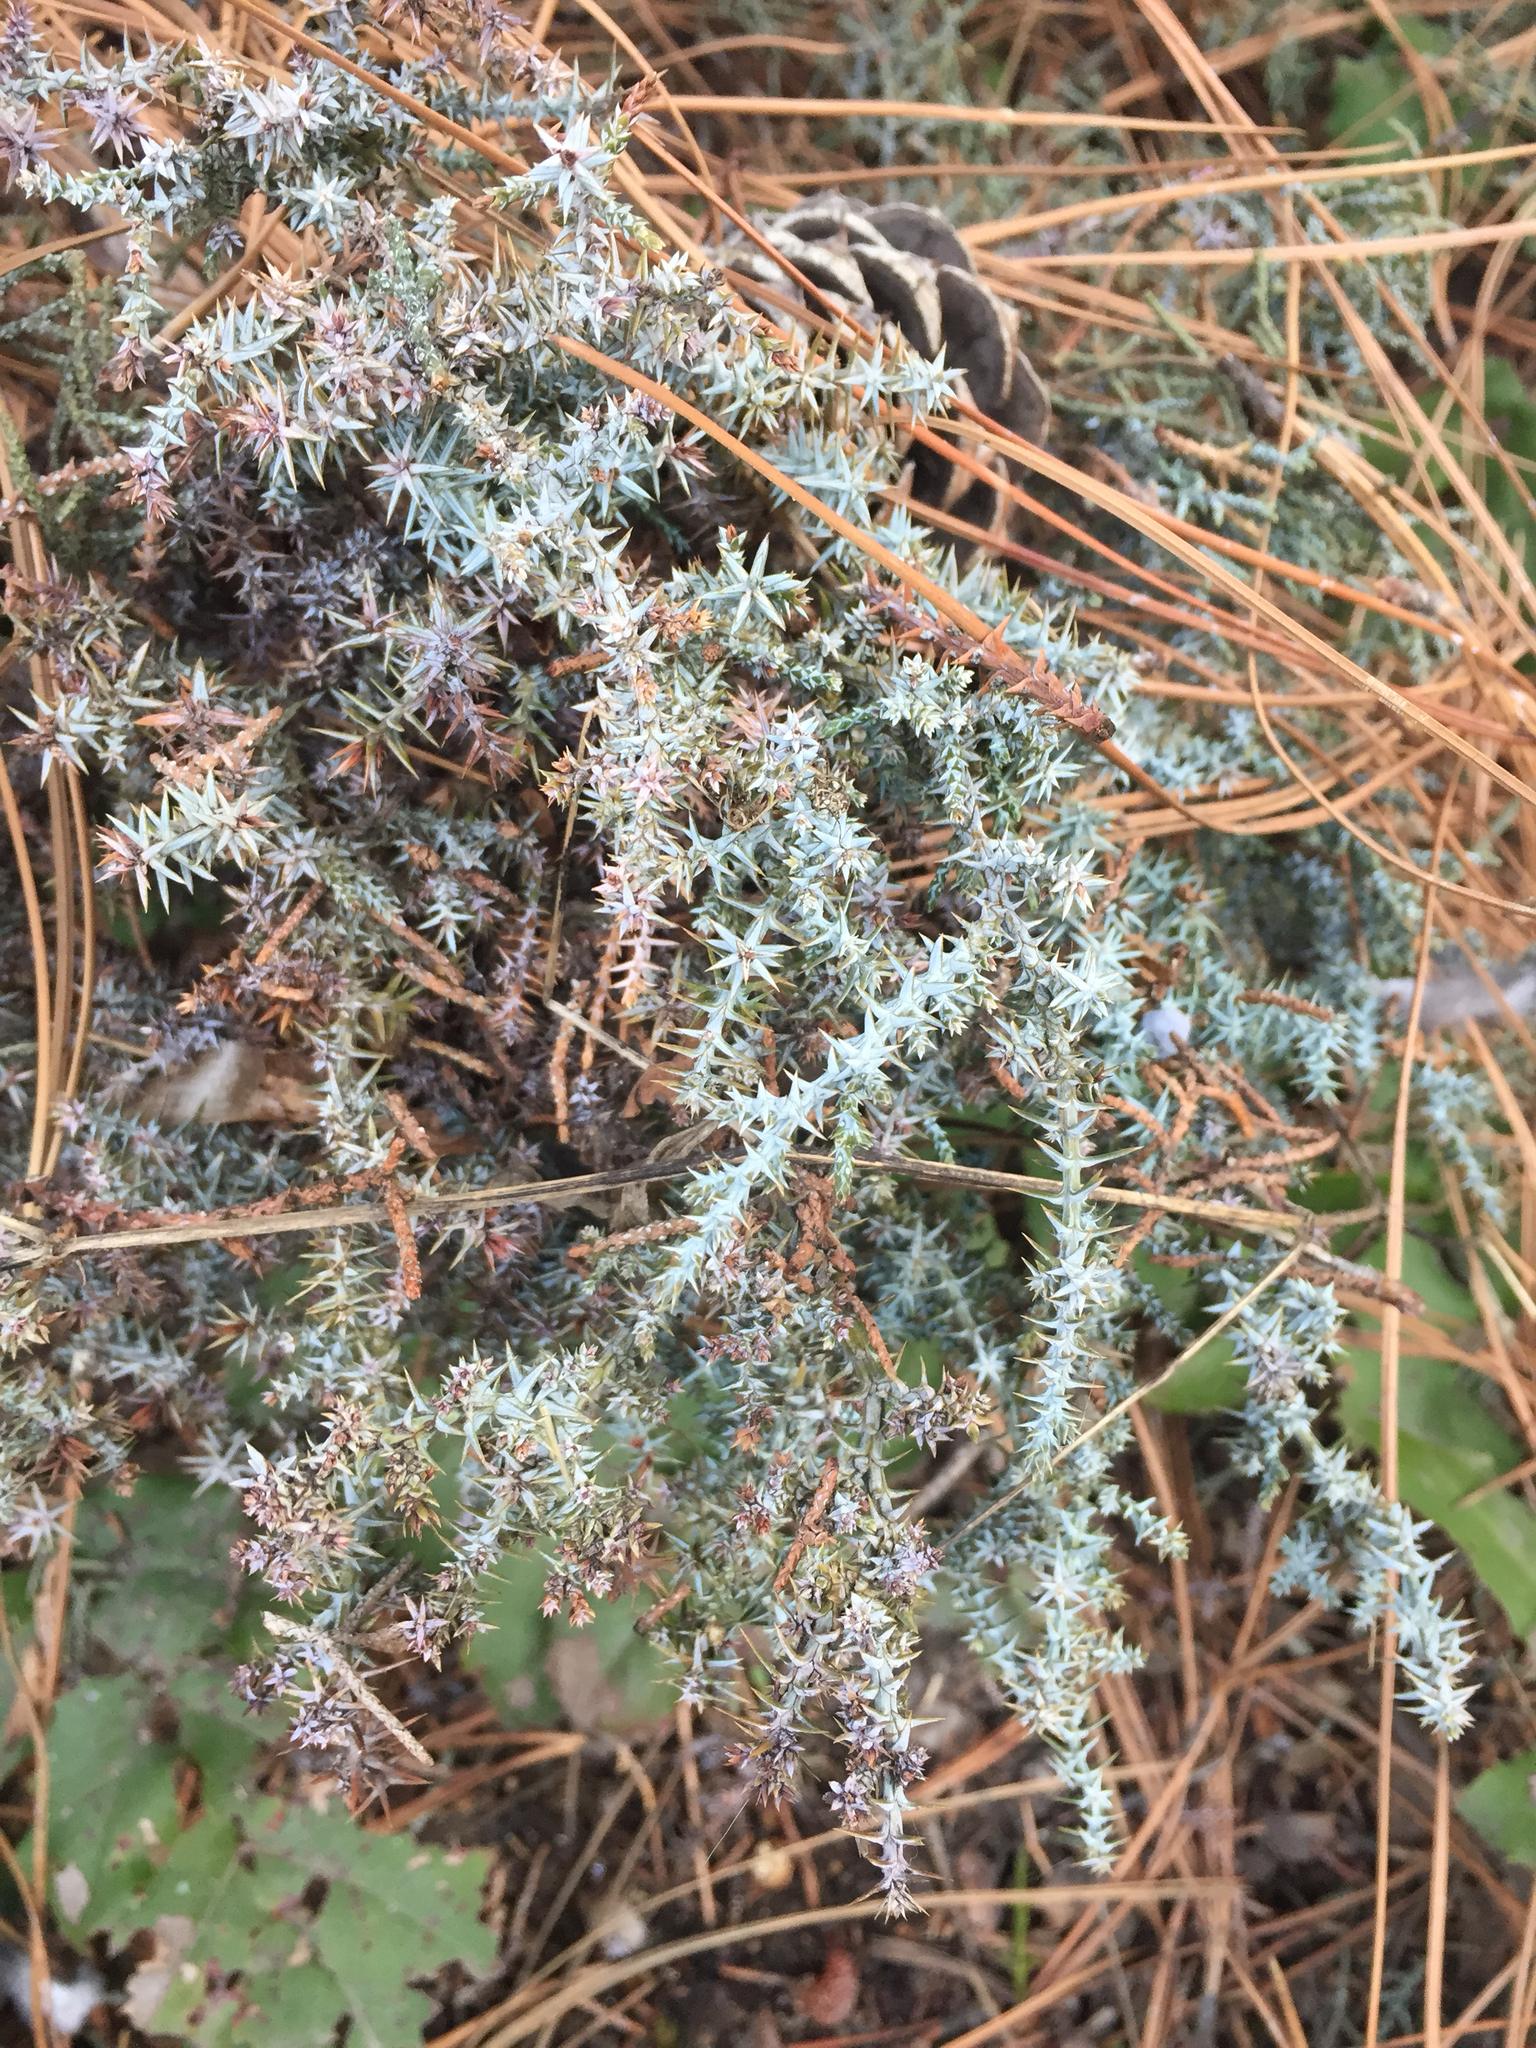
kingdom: Plantae
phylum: Tracheophyta
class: Pinopsida
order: Pinales
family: Cupressaceae
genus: Juniperus
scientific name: Juniperus occidentalis
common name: Western juniper
